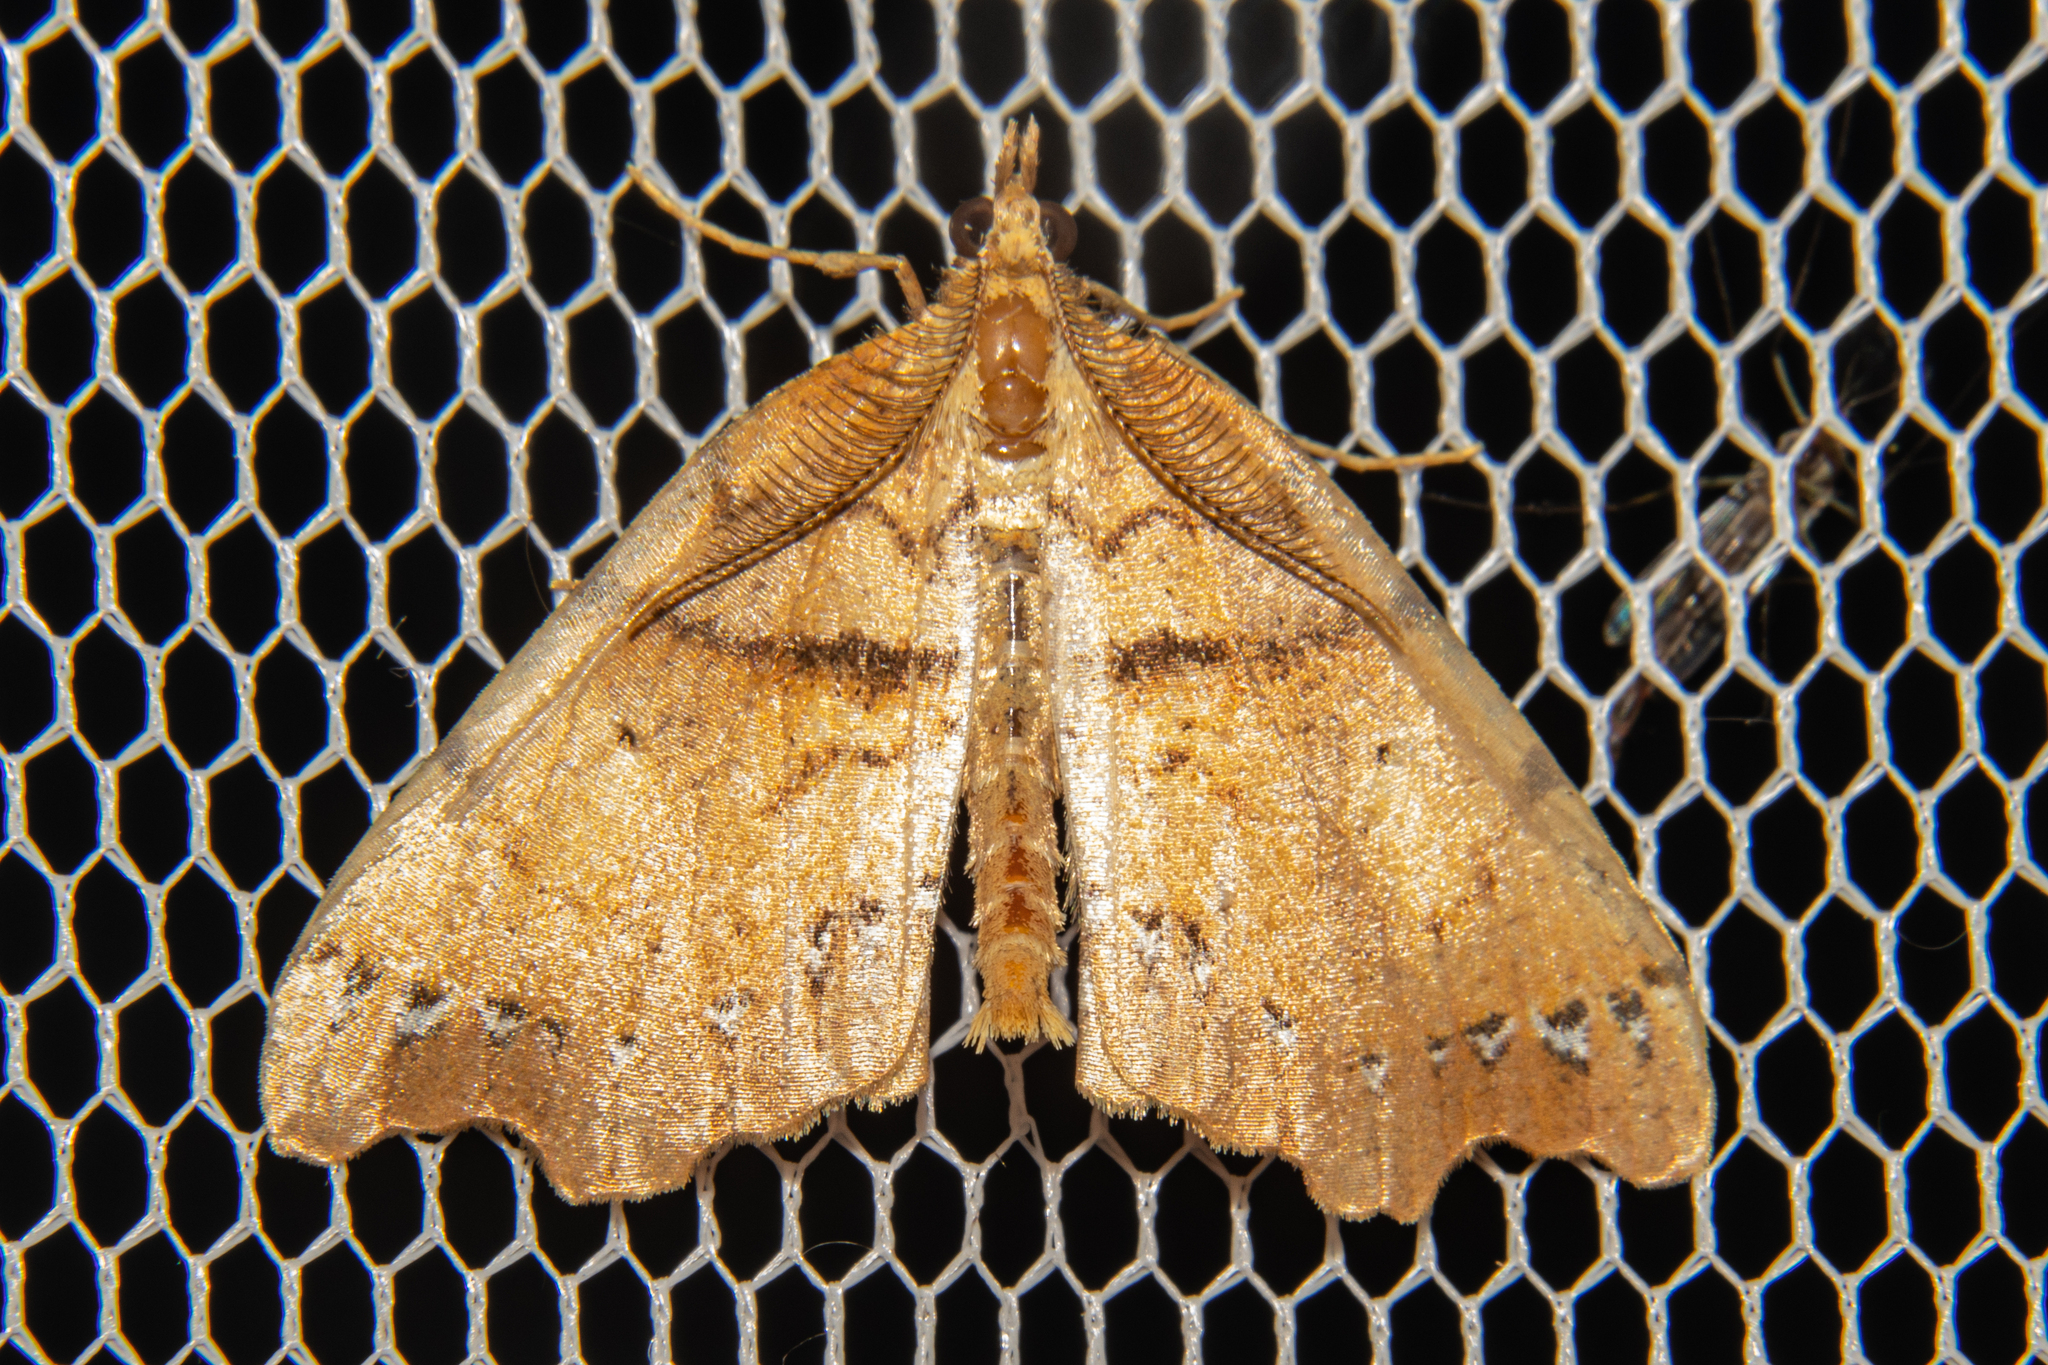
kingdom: Animalia
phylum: Arthropoda
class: Insecta
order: Lepidoptera
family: Geometridae
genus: Chalastra
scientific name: Chalastra pellurgata
